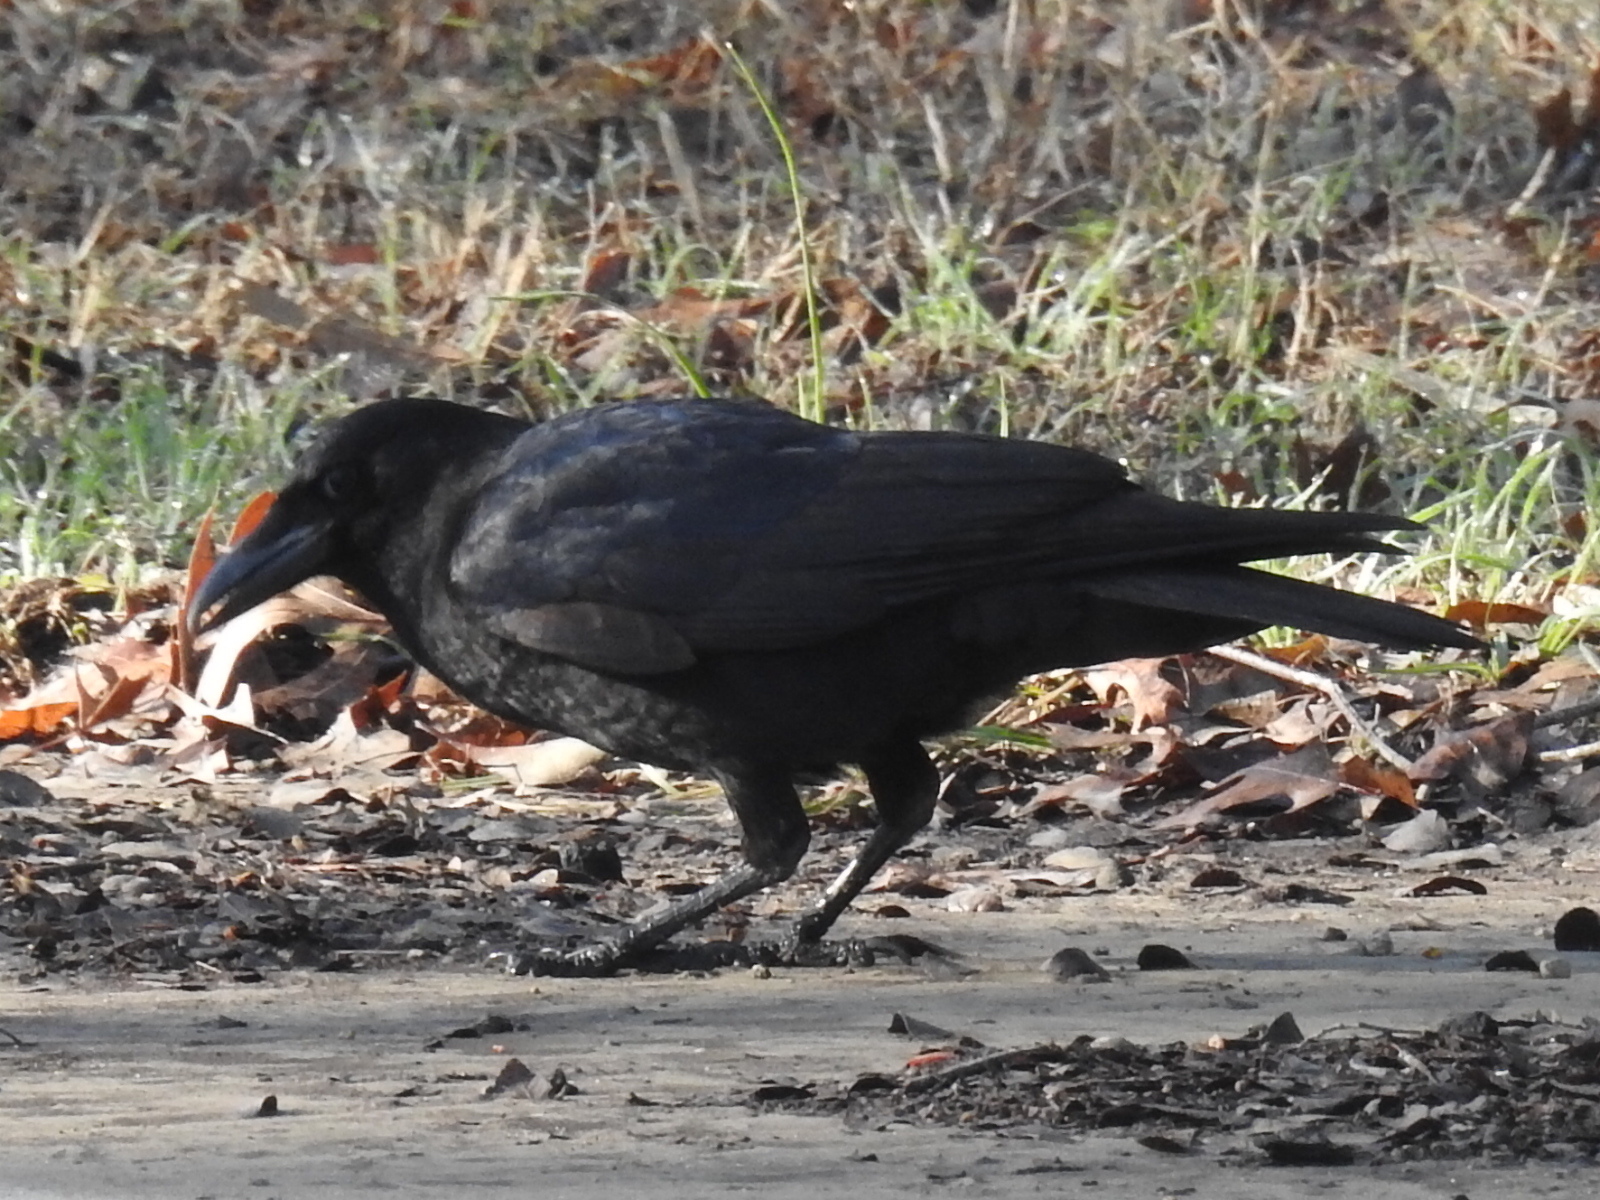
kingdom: Animalia
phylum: Chordata
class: Aves
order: Passeriformes
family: Corvidae
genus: Corvus
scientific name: Corvus brachyrhynchos
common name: American crow
